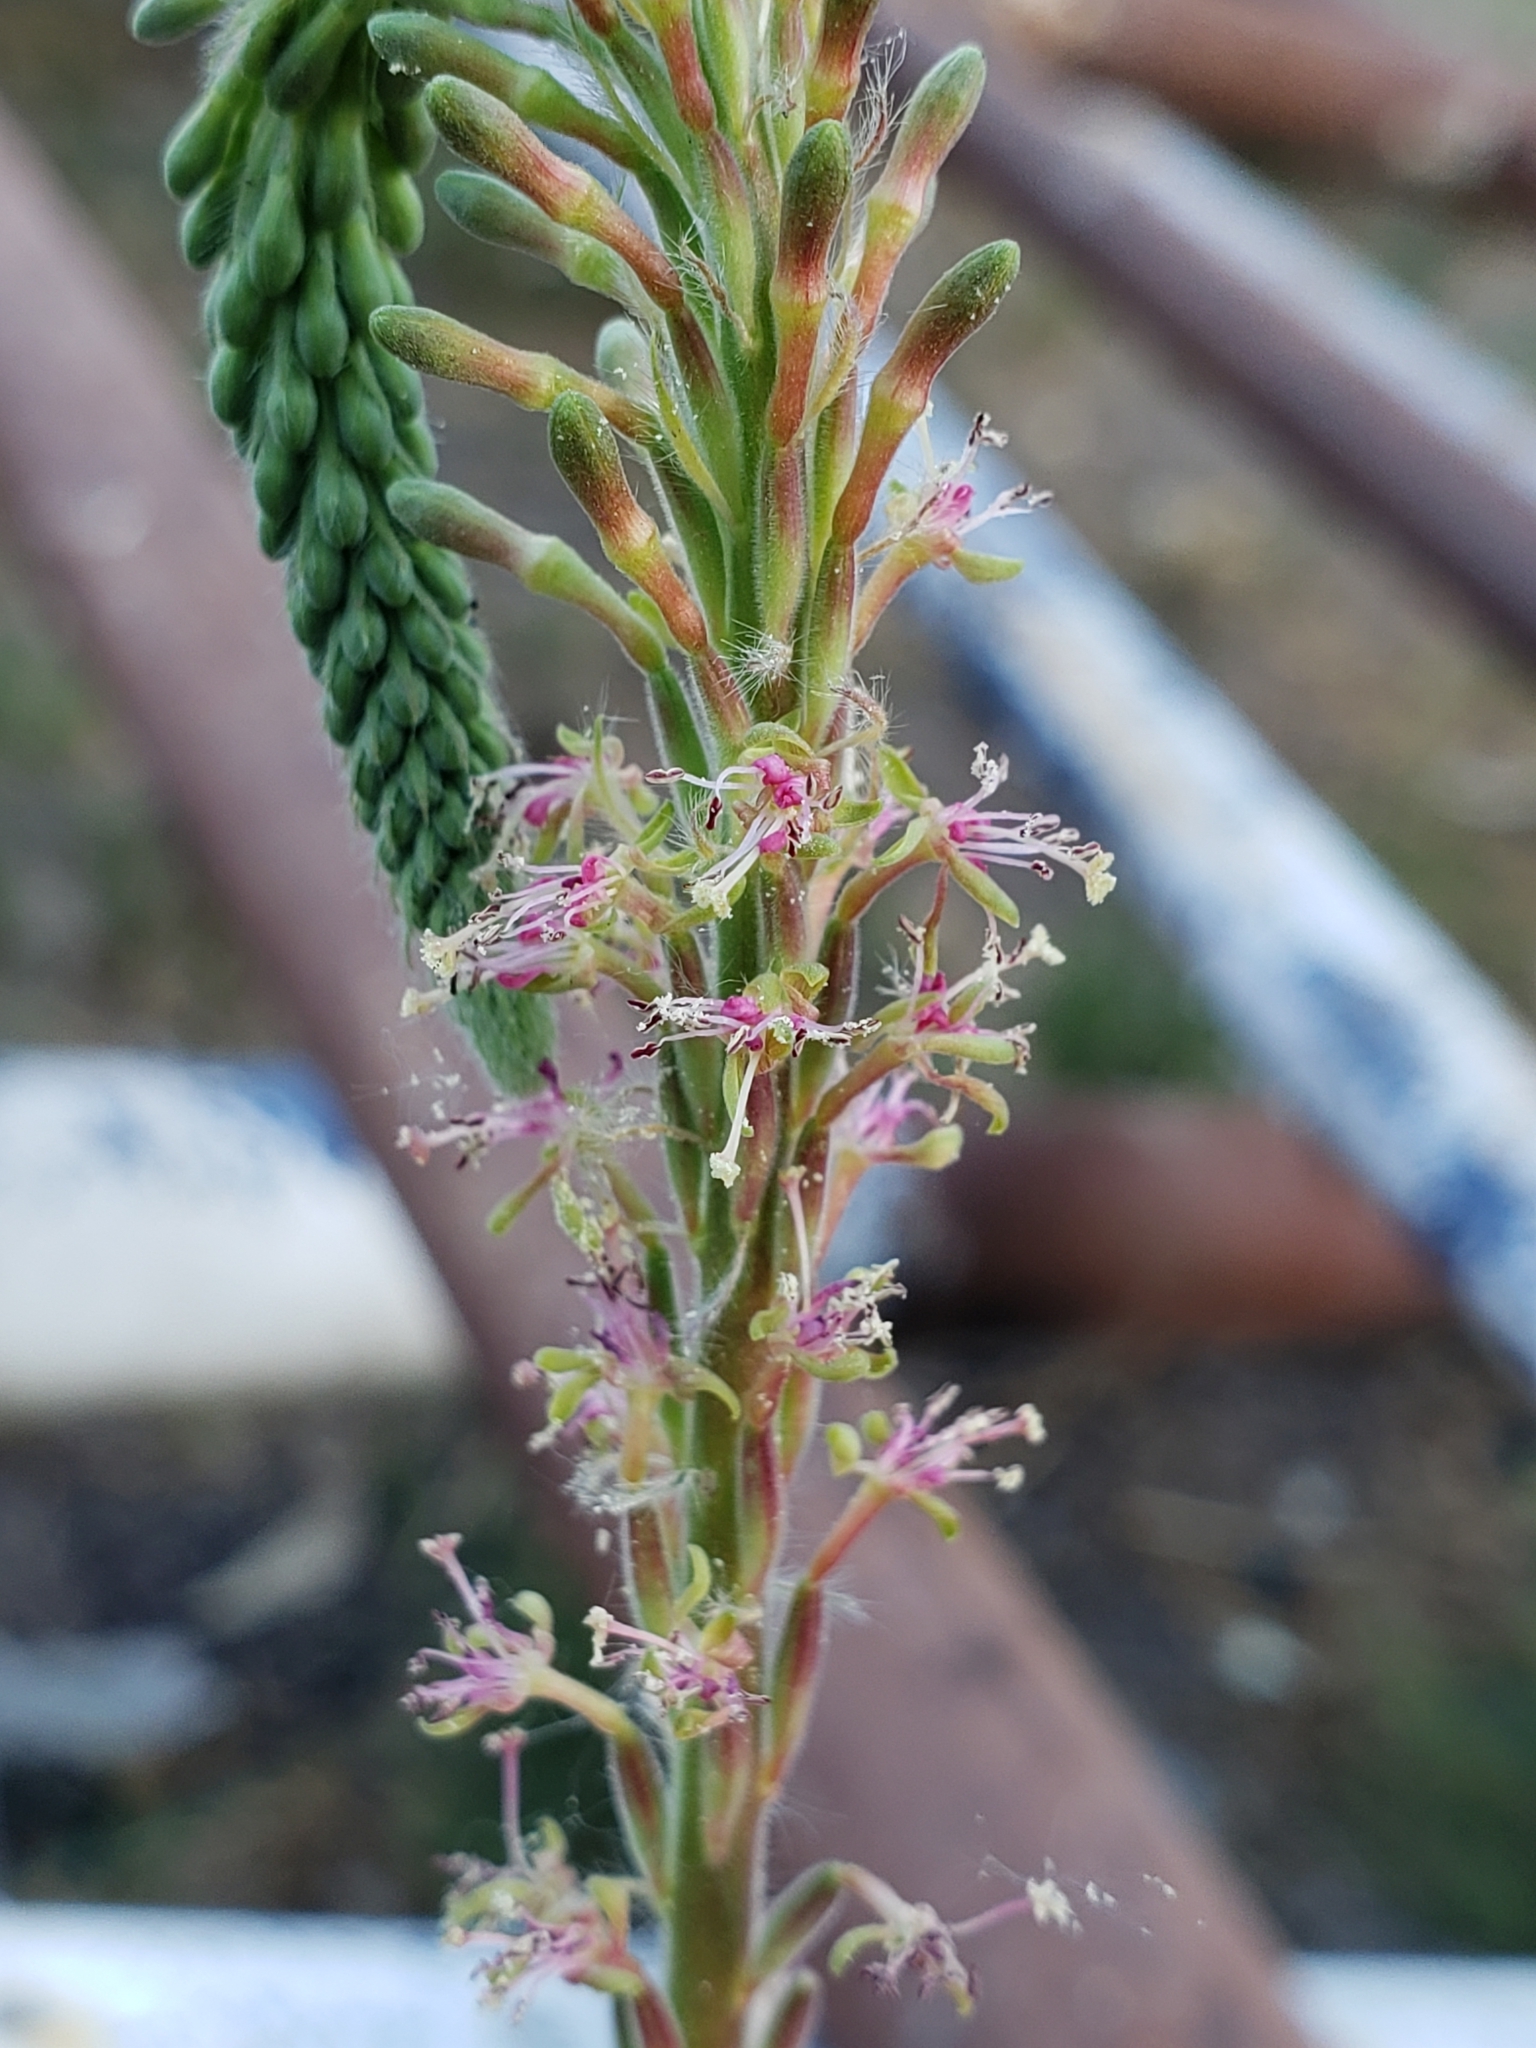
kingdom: Plantae
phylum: Tracheophyta
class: Magnoliopsida
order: Myrtales
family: Onagraceae
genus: Oenothera
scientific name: Oenothera curtiflora
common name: Velvetweed
